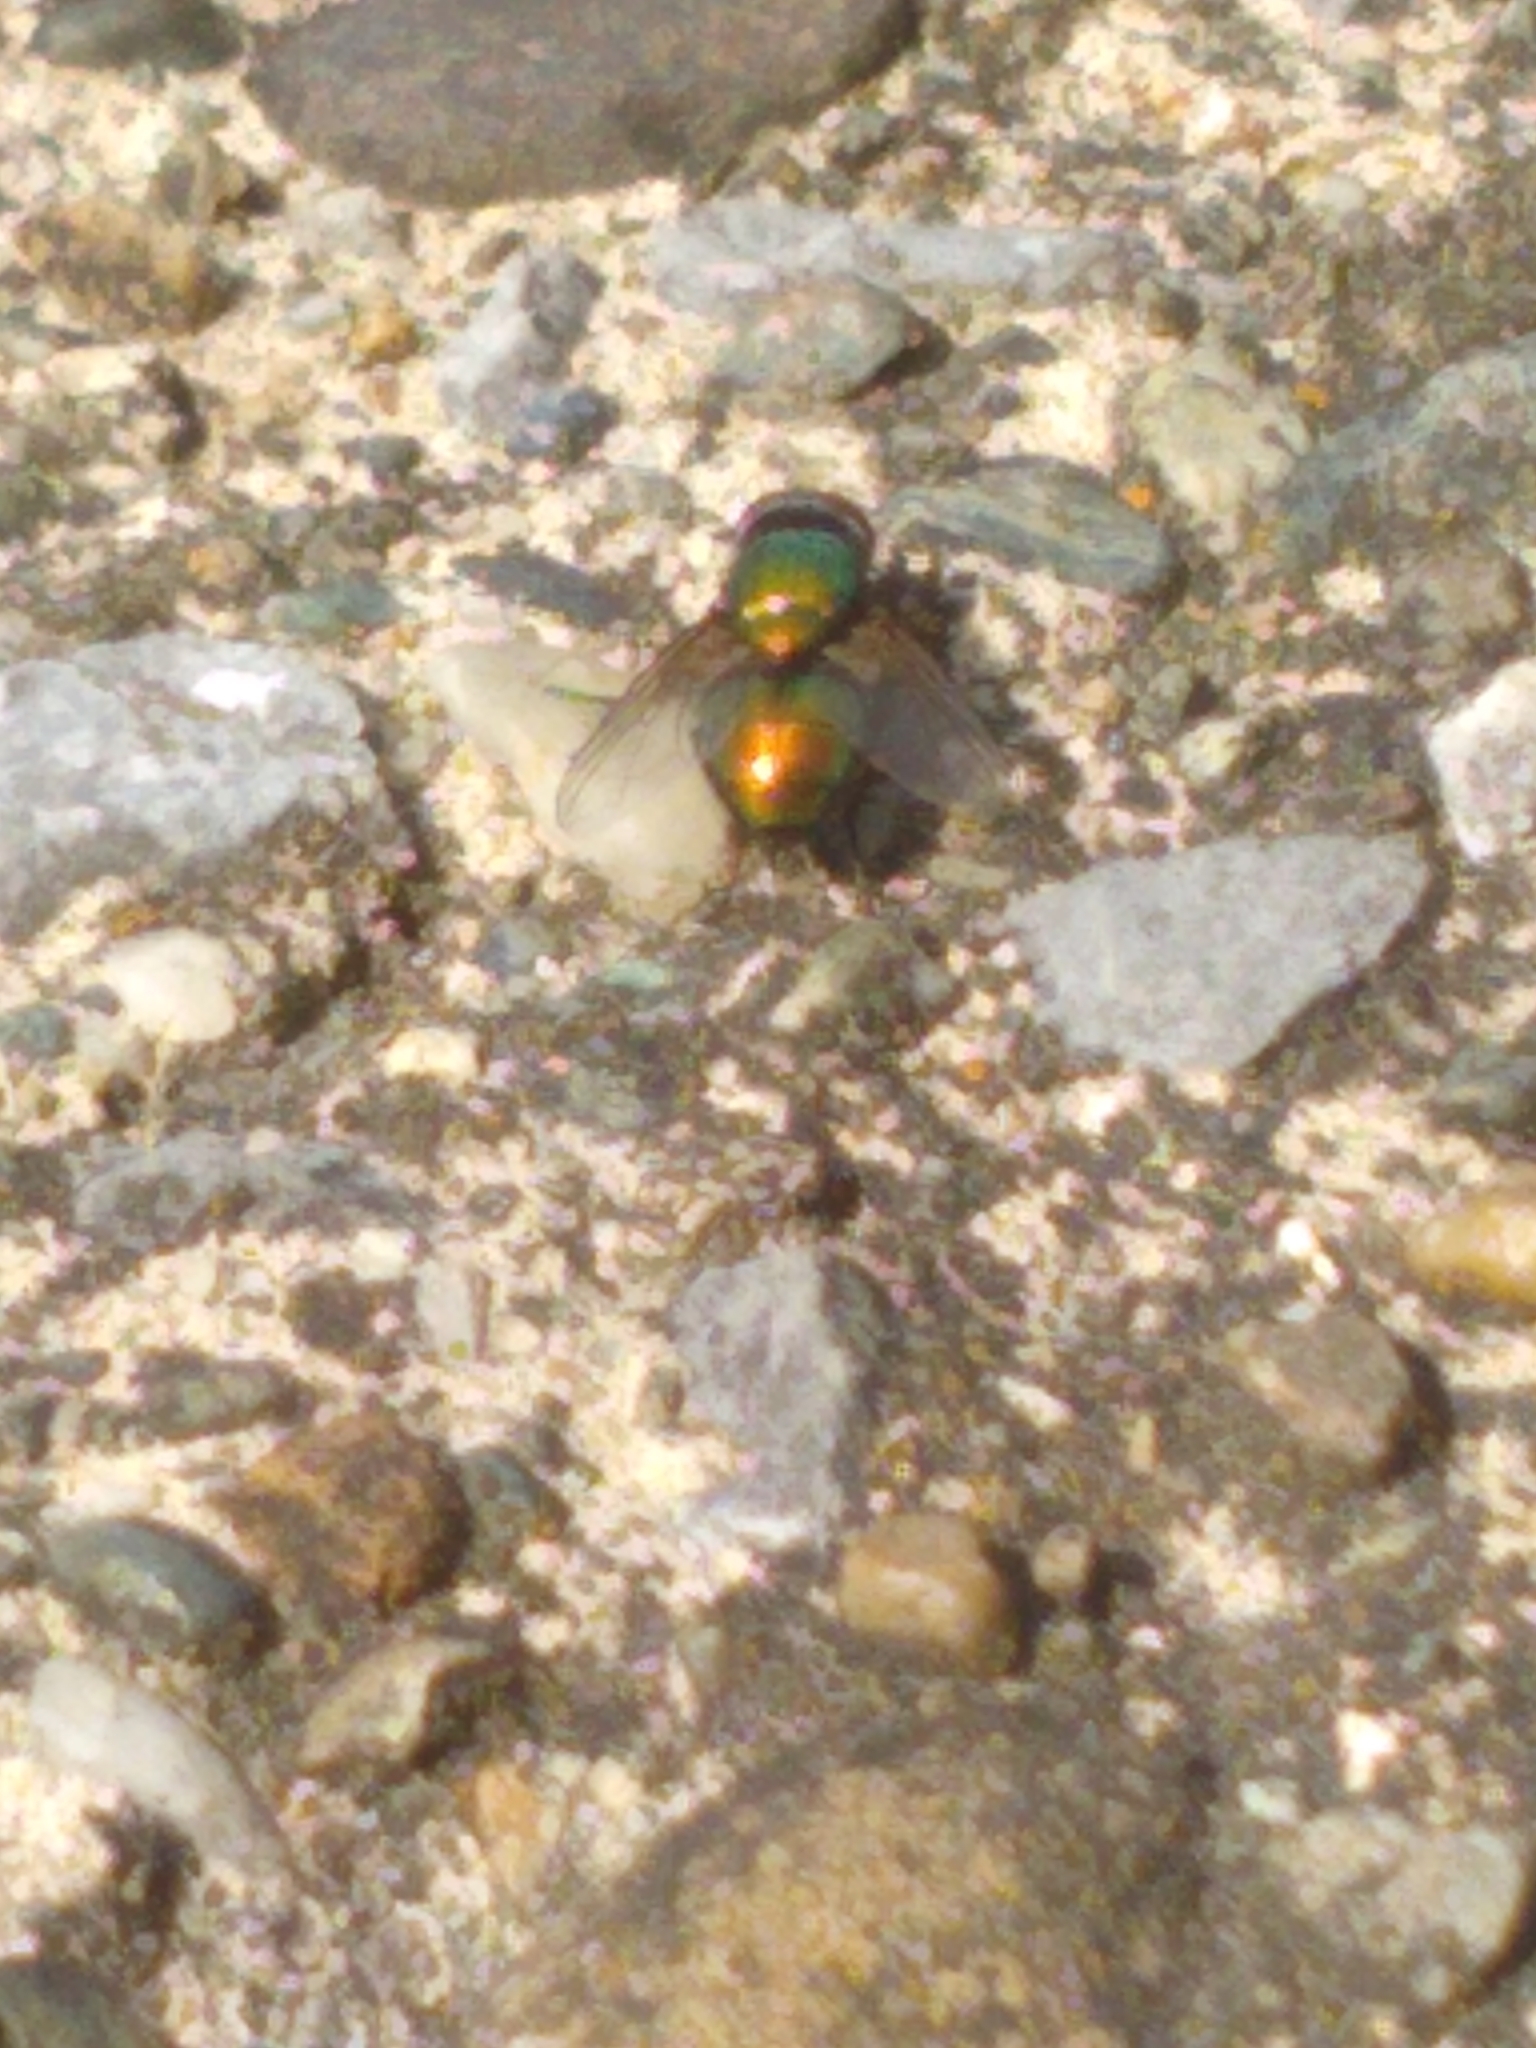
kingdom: Animalia
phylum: Arthropoda
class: Insecta
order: Diptera
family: Calliphoridae
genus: Lucilia
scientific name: Lucilia
